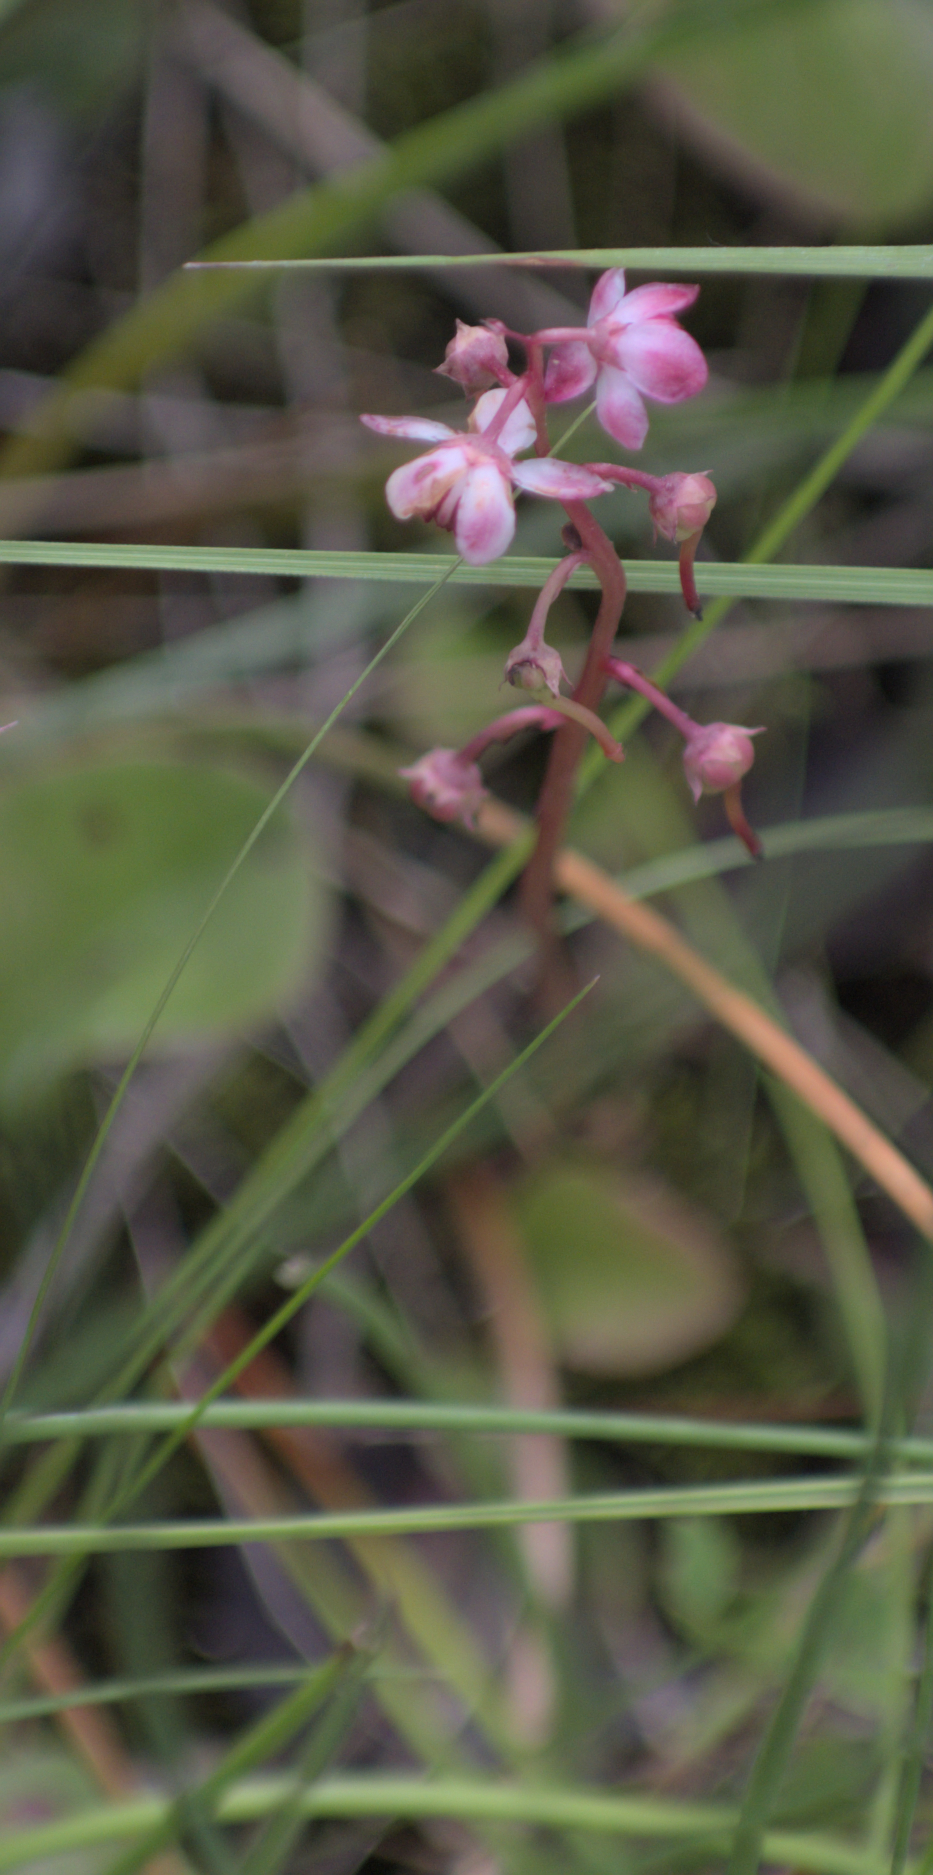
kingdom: Plantae
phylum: Tracheophyta
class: Magnoliopsida
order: Ericales
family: Ericaceae
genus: Pyrola
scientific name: Pyrola asarifolia
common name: Bog wintergreen
